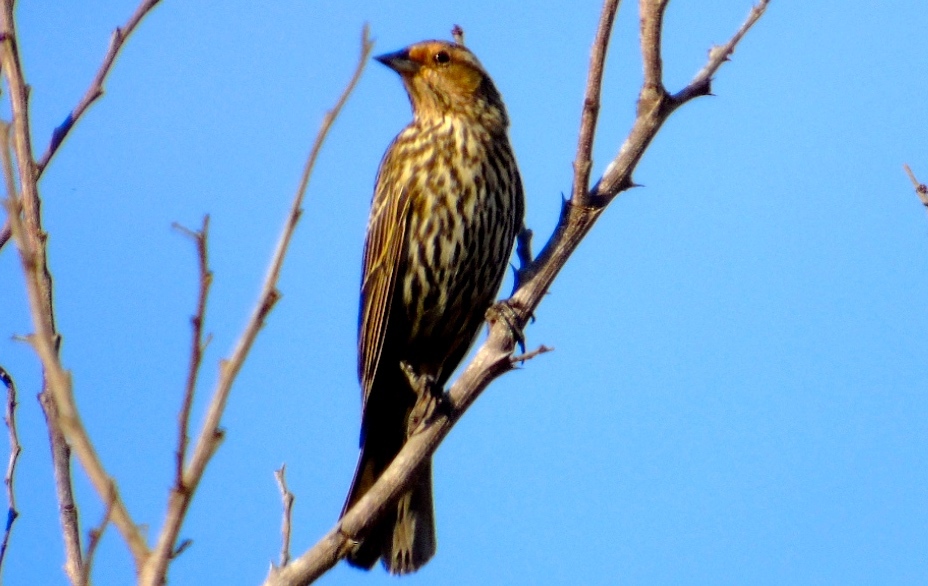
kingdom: Animalia
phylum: Chordata
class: Aves
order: Passeriformes
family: Icteridae
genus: Agelaius
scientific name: Agelaius phoeniceus
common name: Red-winged blackbird
